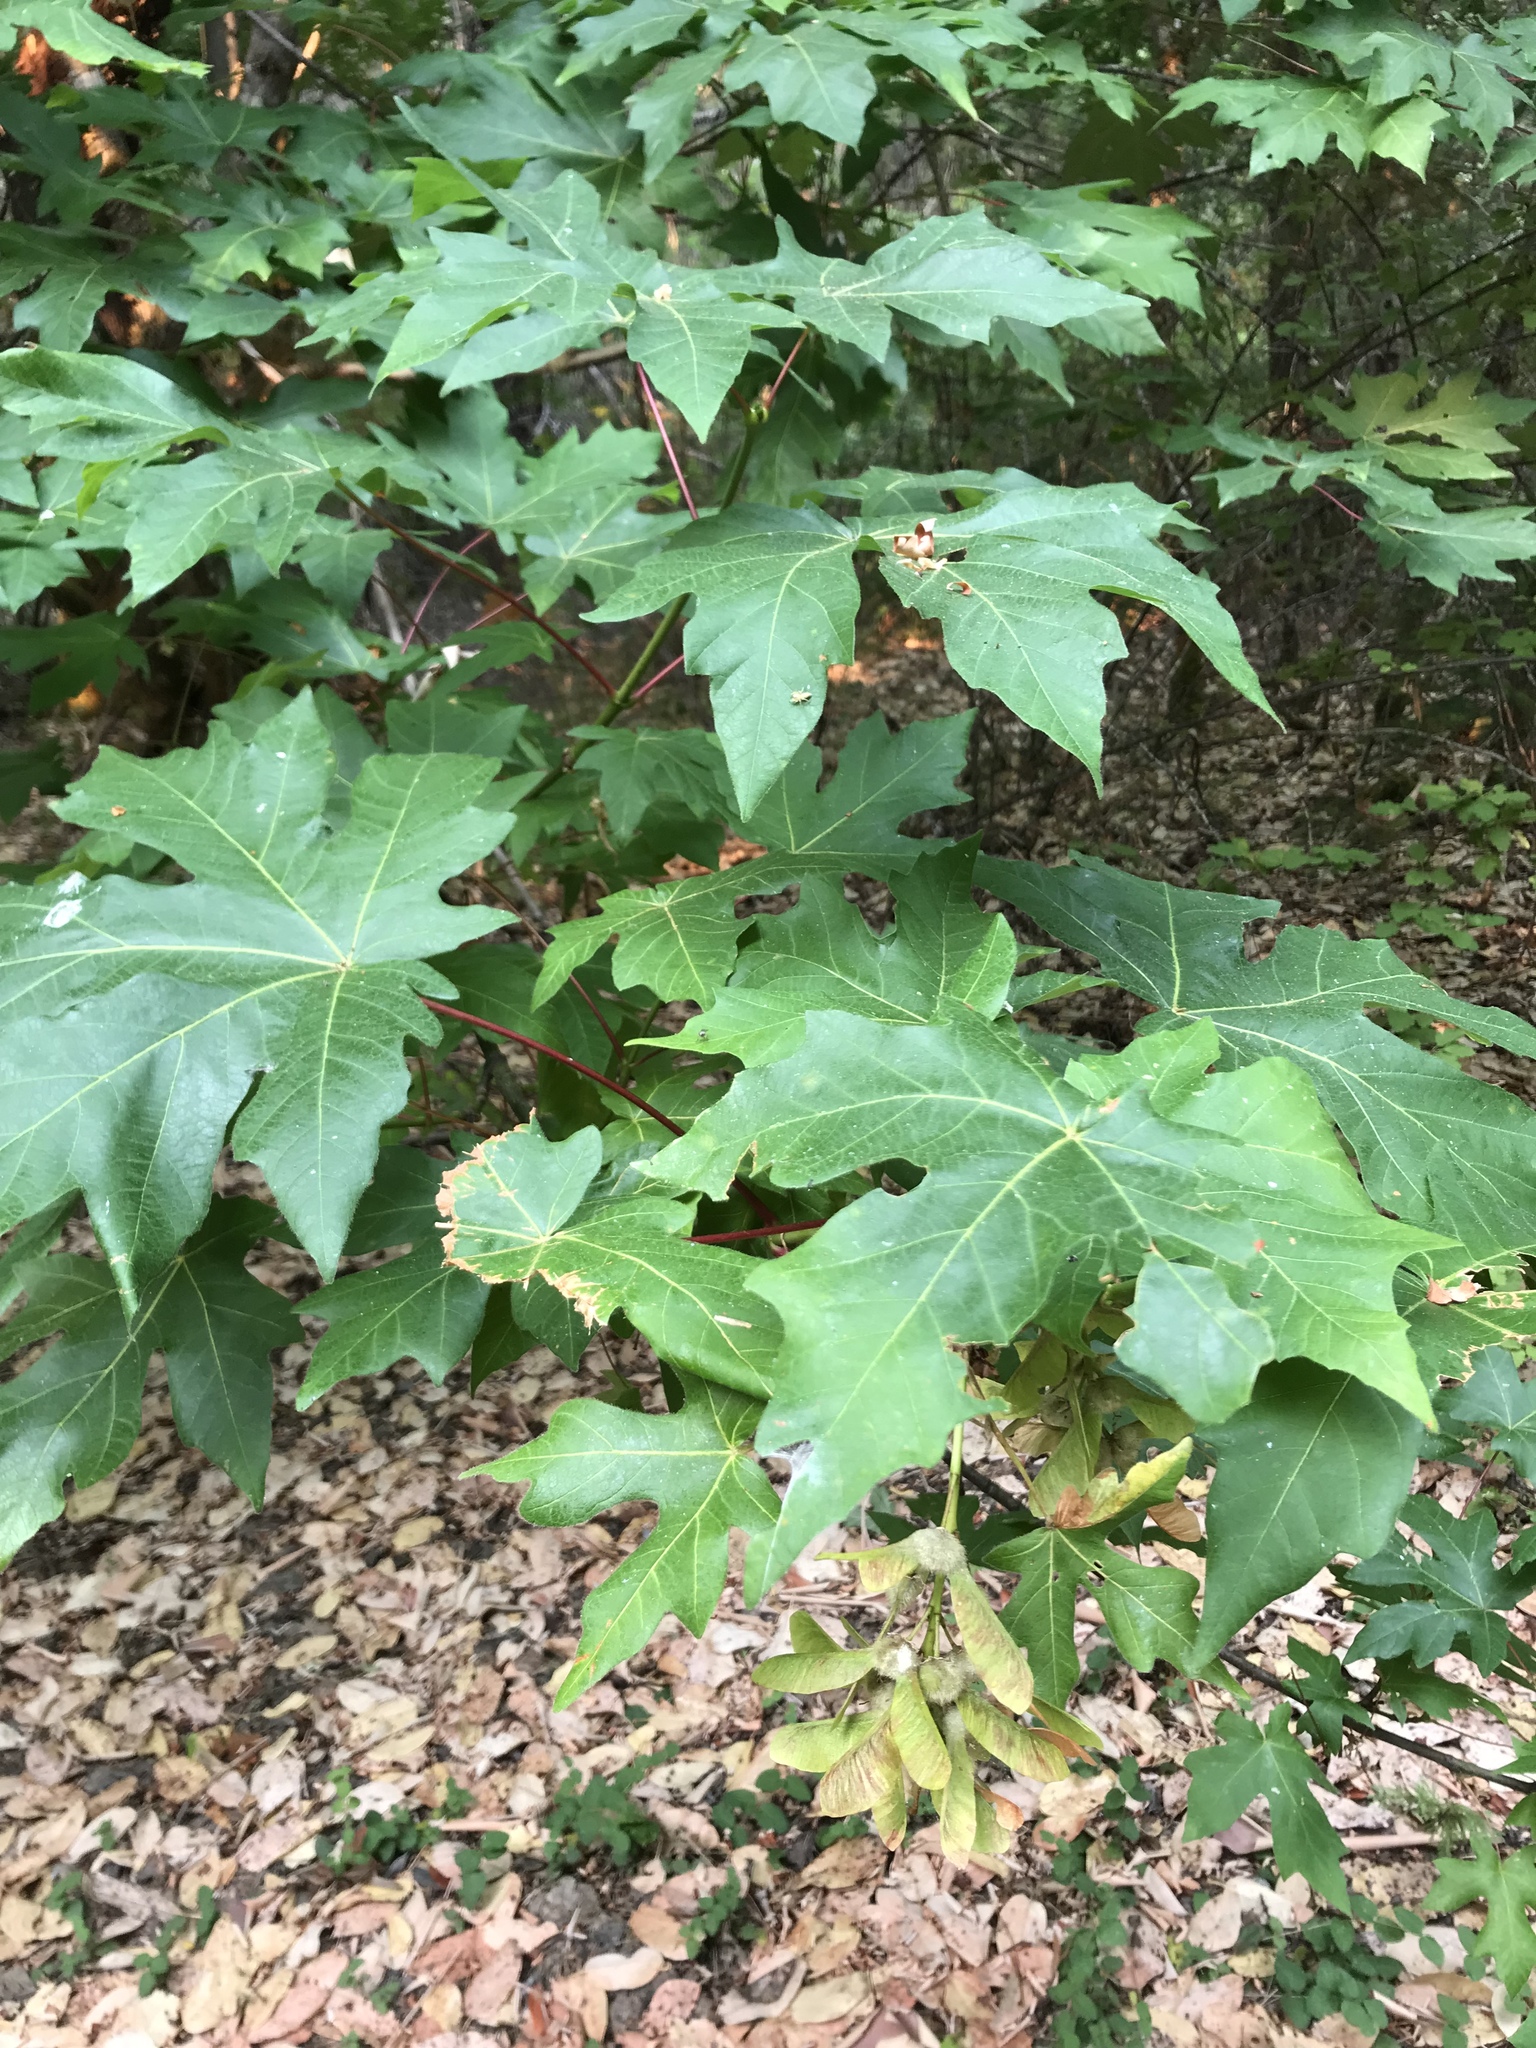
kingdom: Plantae
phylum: Tracheophyta
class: Magnoliopsida
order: Sapindales
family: Sapindaceae
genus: Acer
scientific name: Acer macrophyllum
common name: Oregon maple
